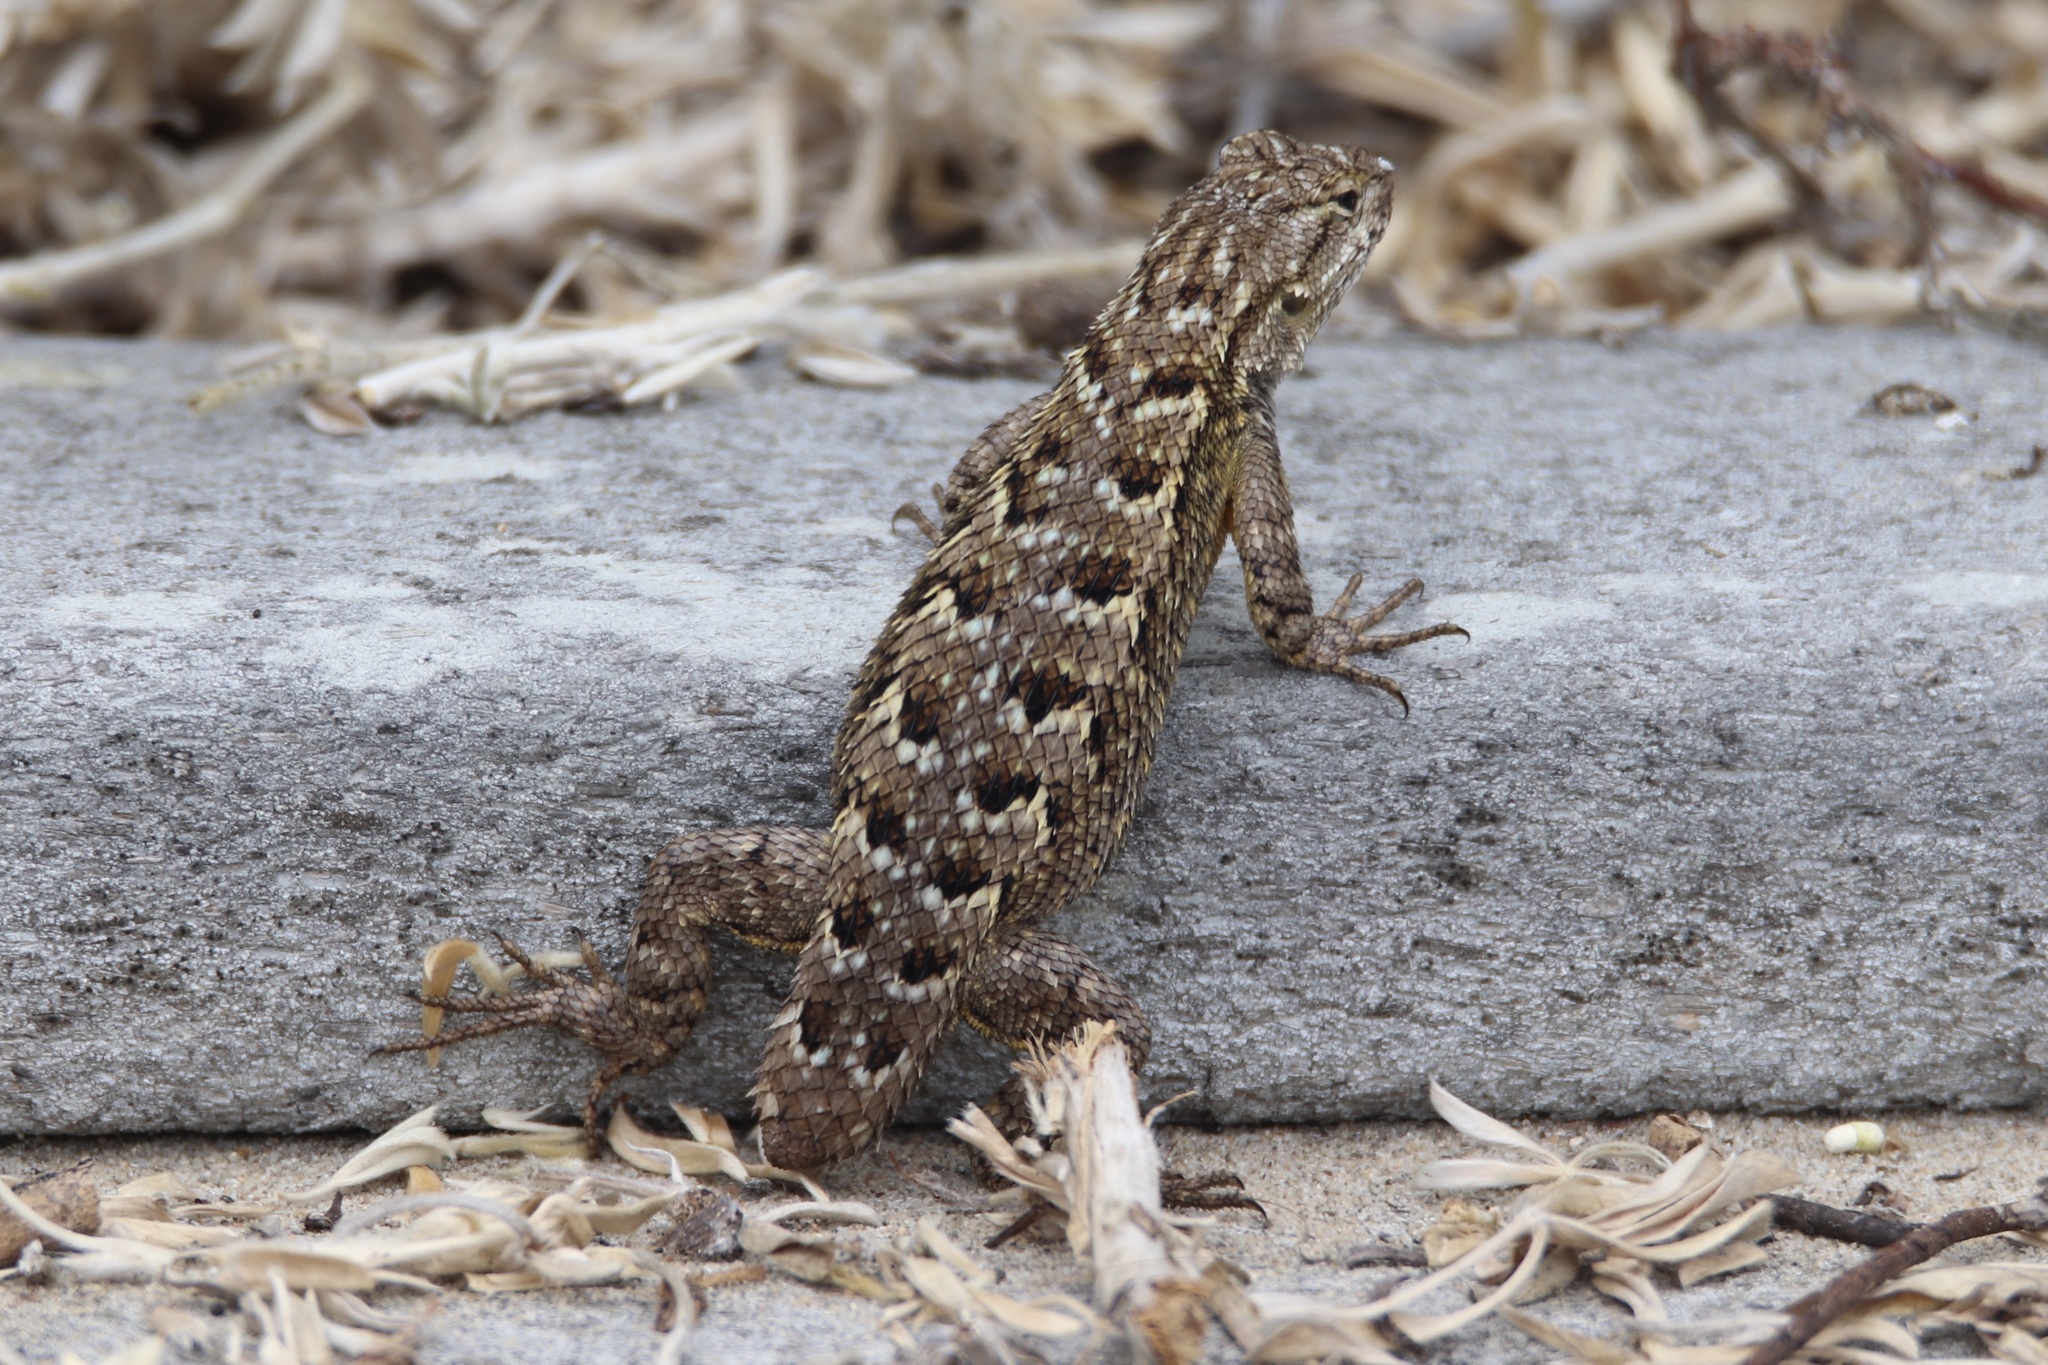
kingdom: Animalia
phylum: Chordata
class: Squamata
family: Phrynosomatidae
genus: Sceloporus
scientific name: Sceloporus occidentalis
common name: Western fence lizard
